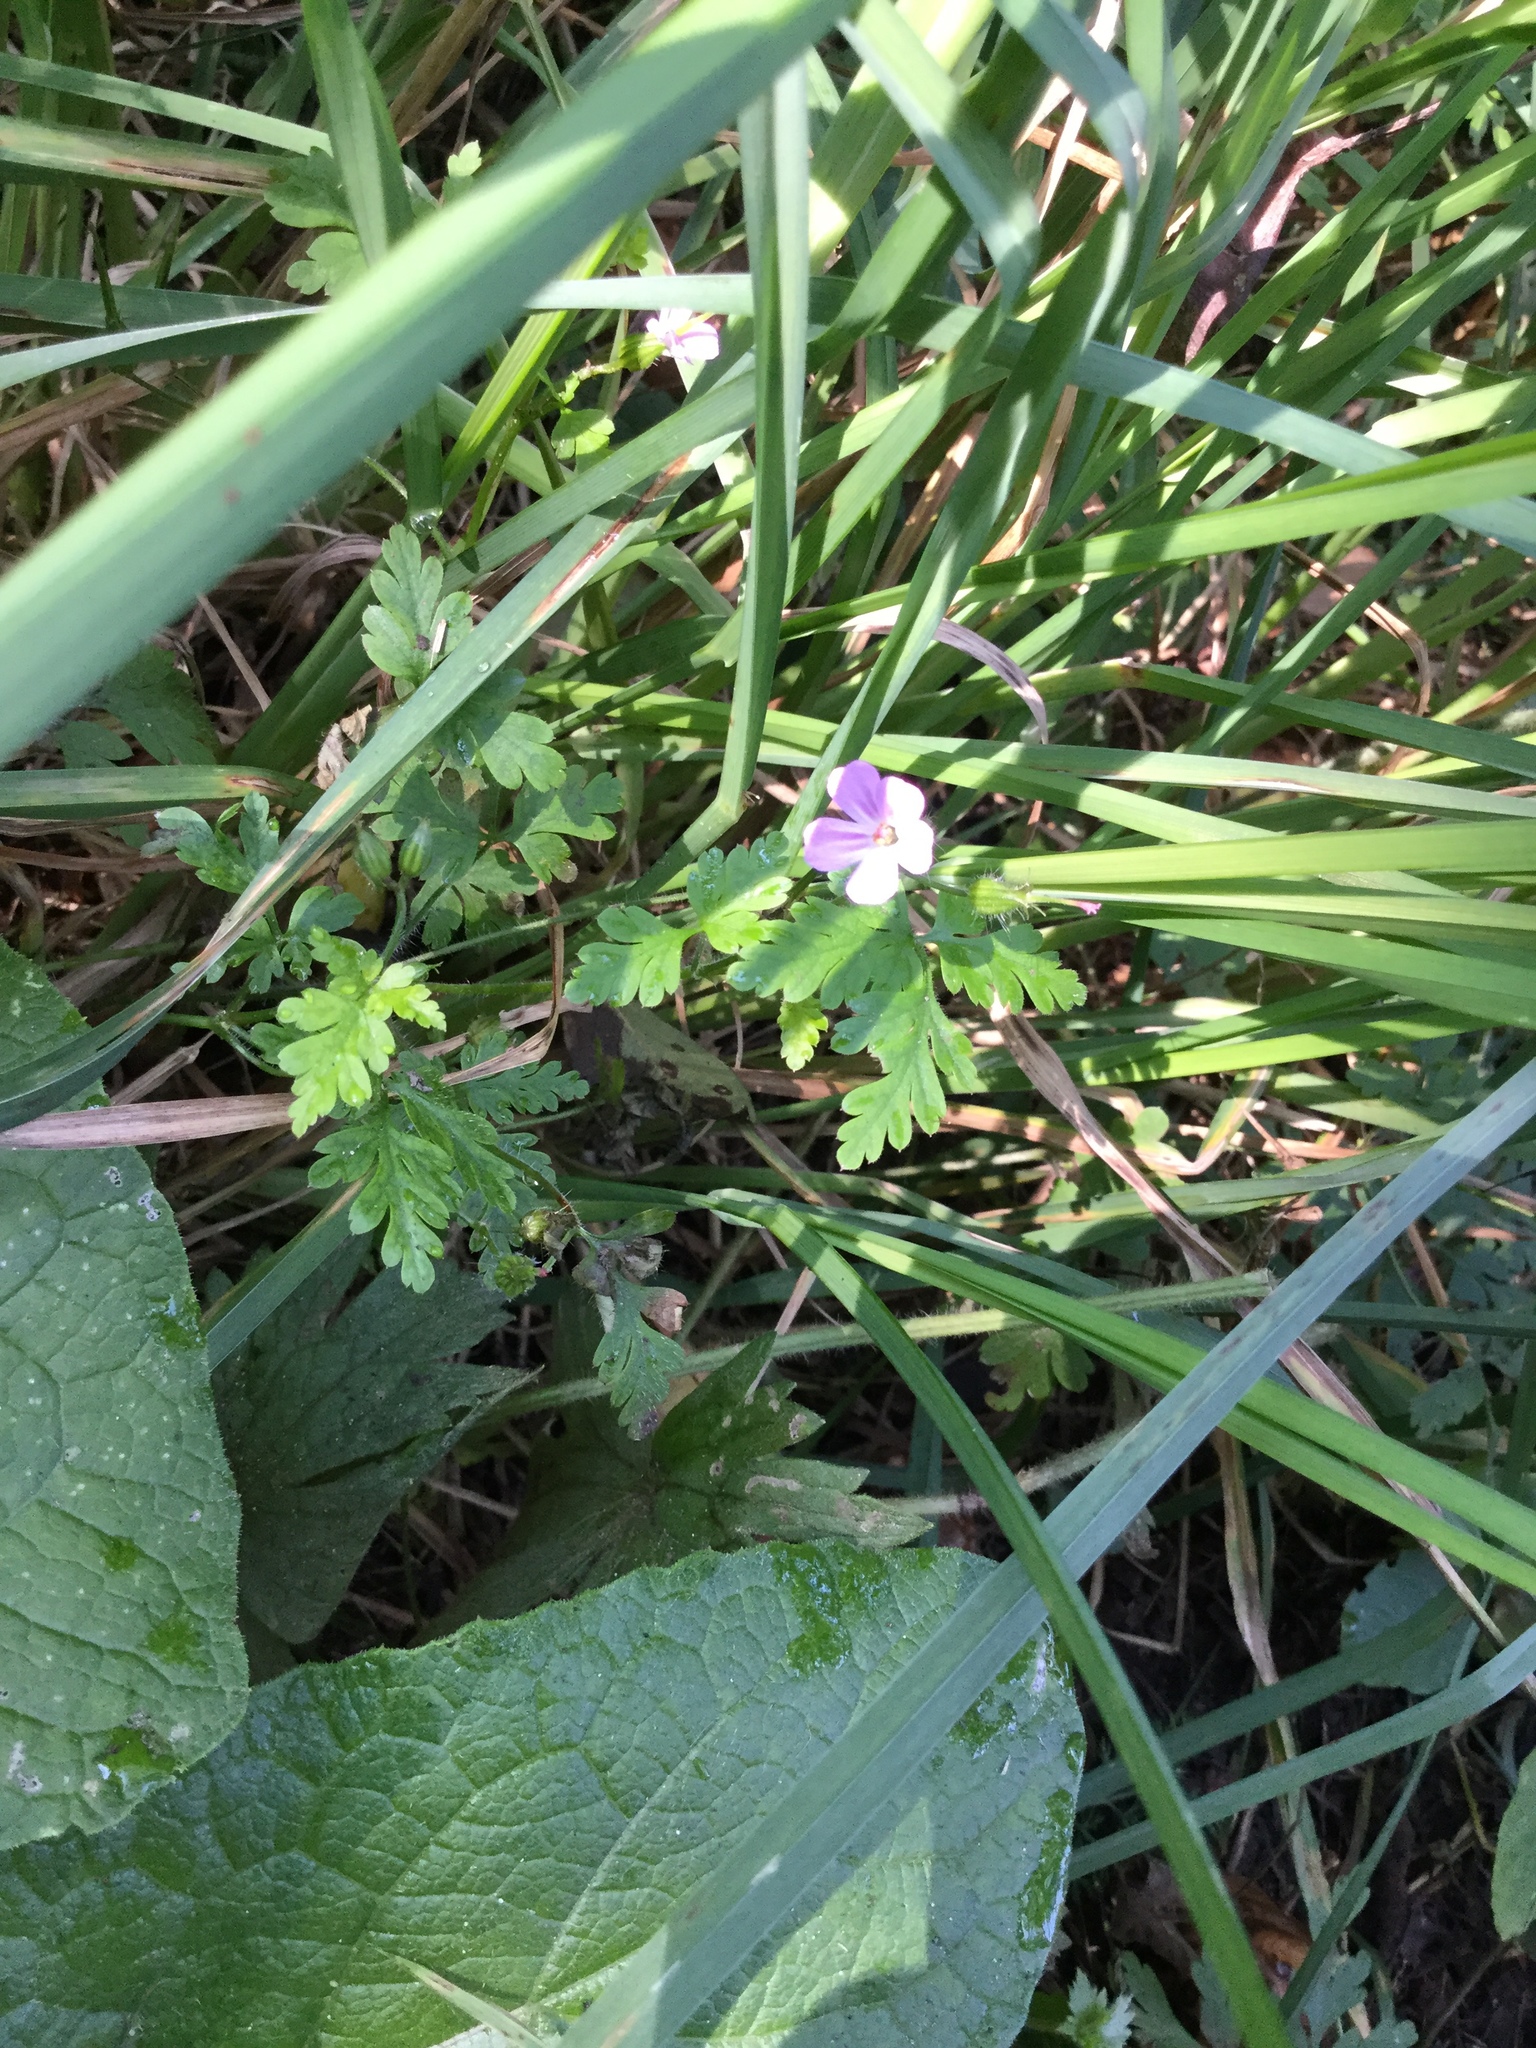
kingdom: Plantae
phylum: Tracheophyta
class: Magnoliopsida
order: Geraniales
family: Geraniaceae
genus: Geranium
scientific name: Geranium robertianum
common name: Herb-robert
